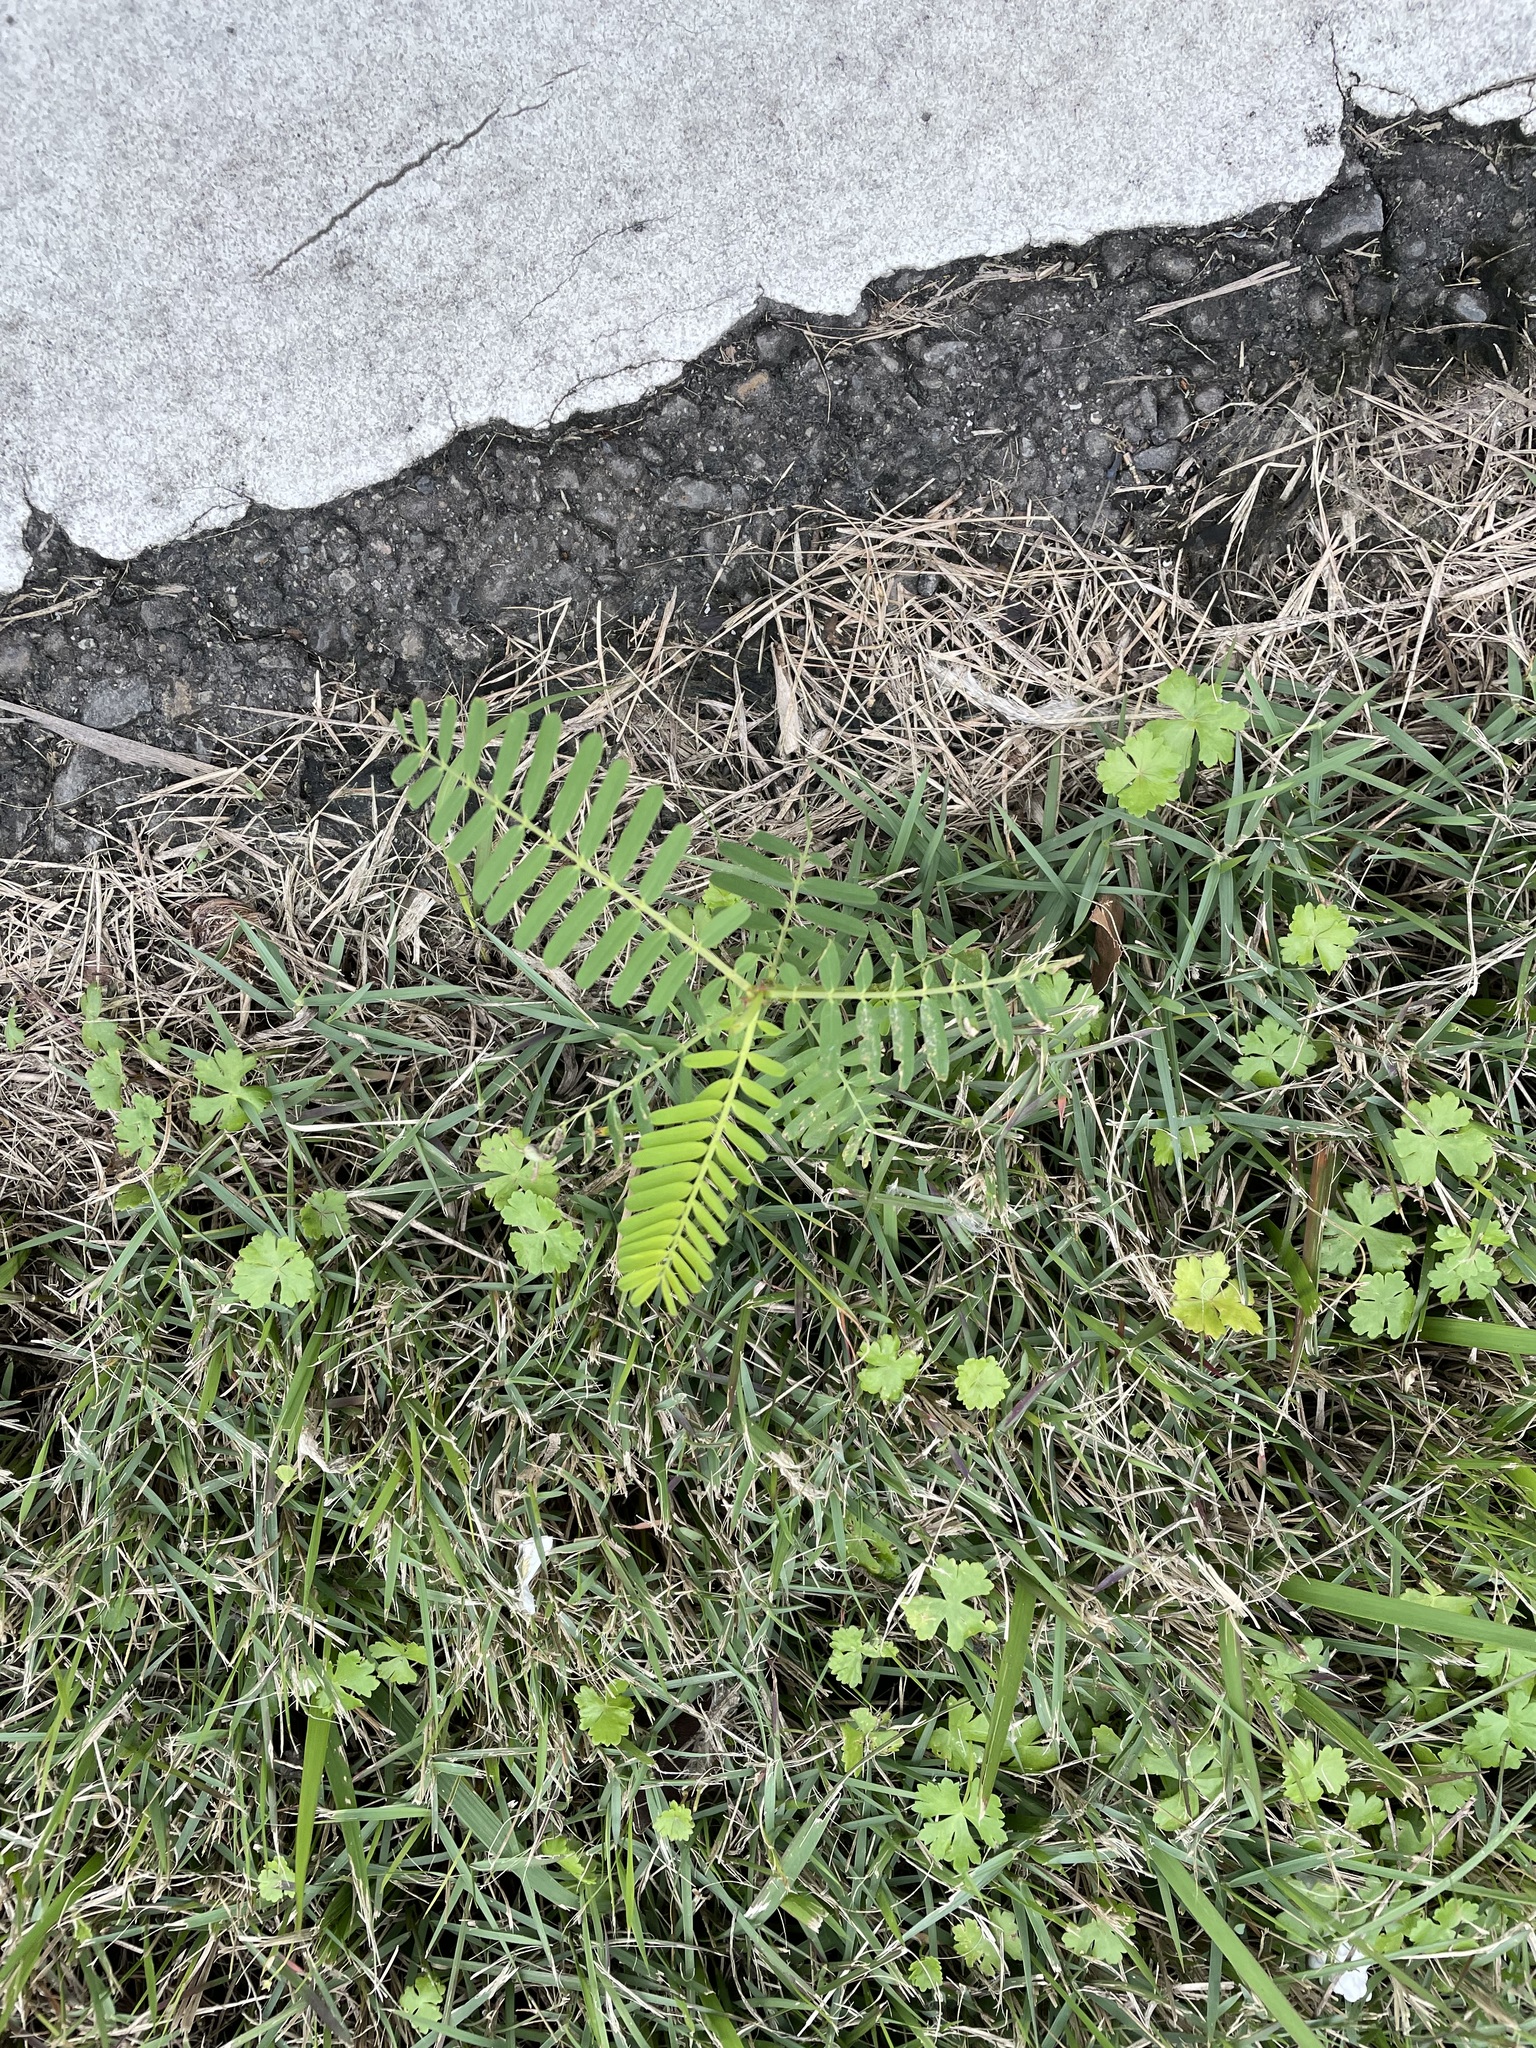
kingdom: Plantae
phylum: Tracheophyta
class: Magnoliopsida
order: Fabales
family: Fabaceae
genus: Sesbania
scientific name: Sesbania cannabina
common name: Canicha
